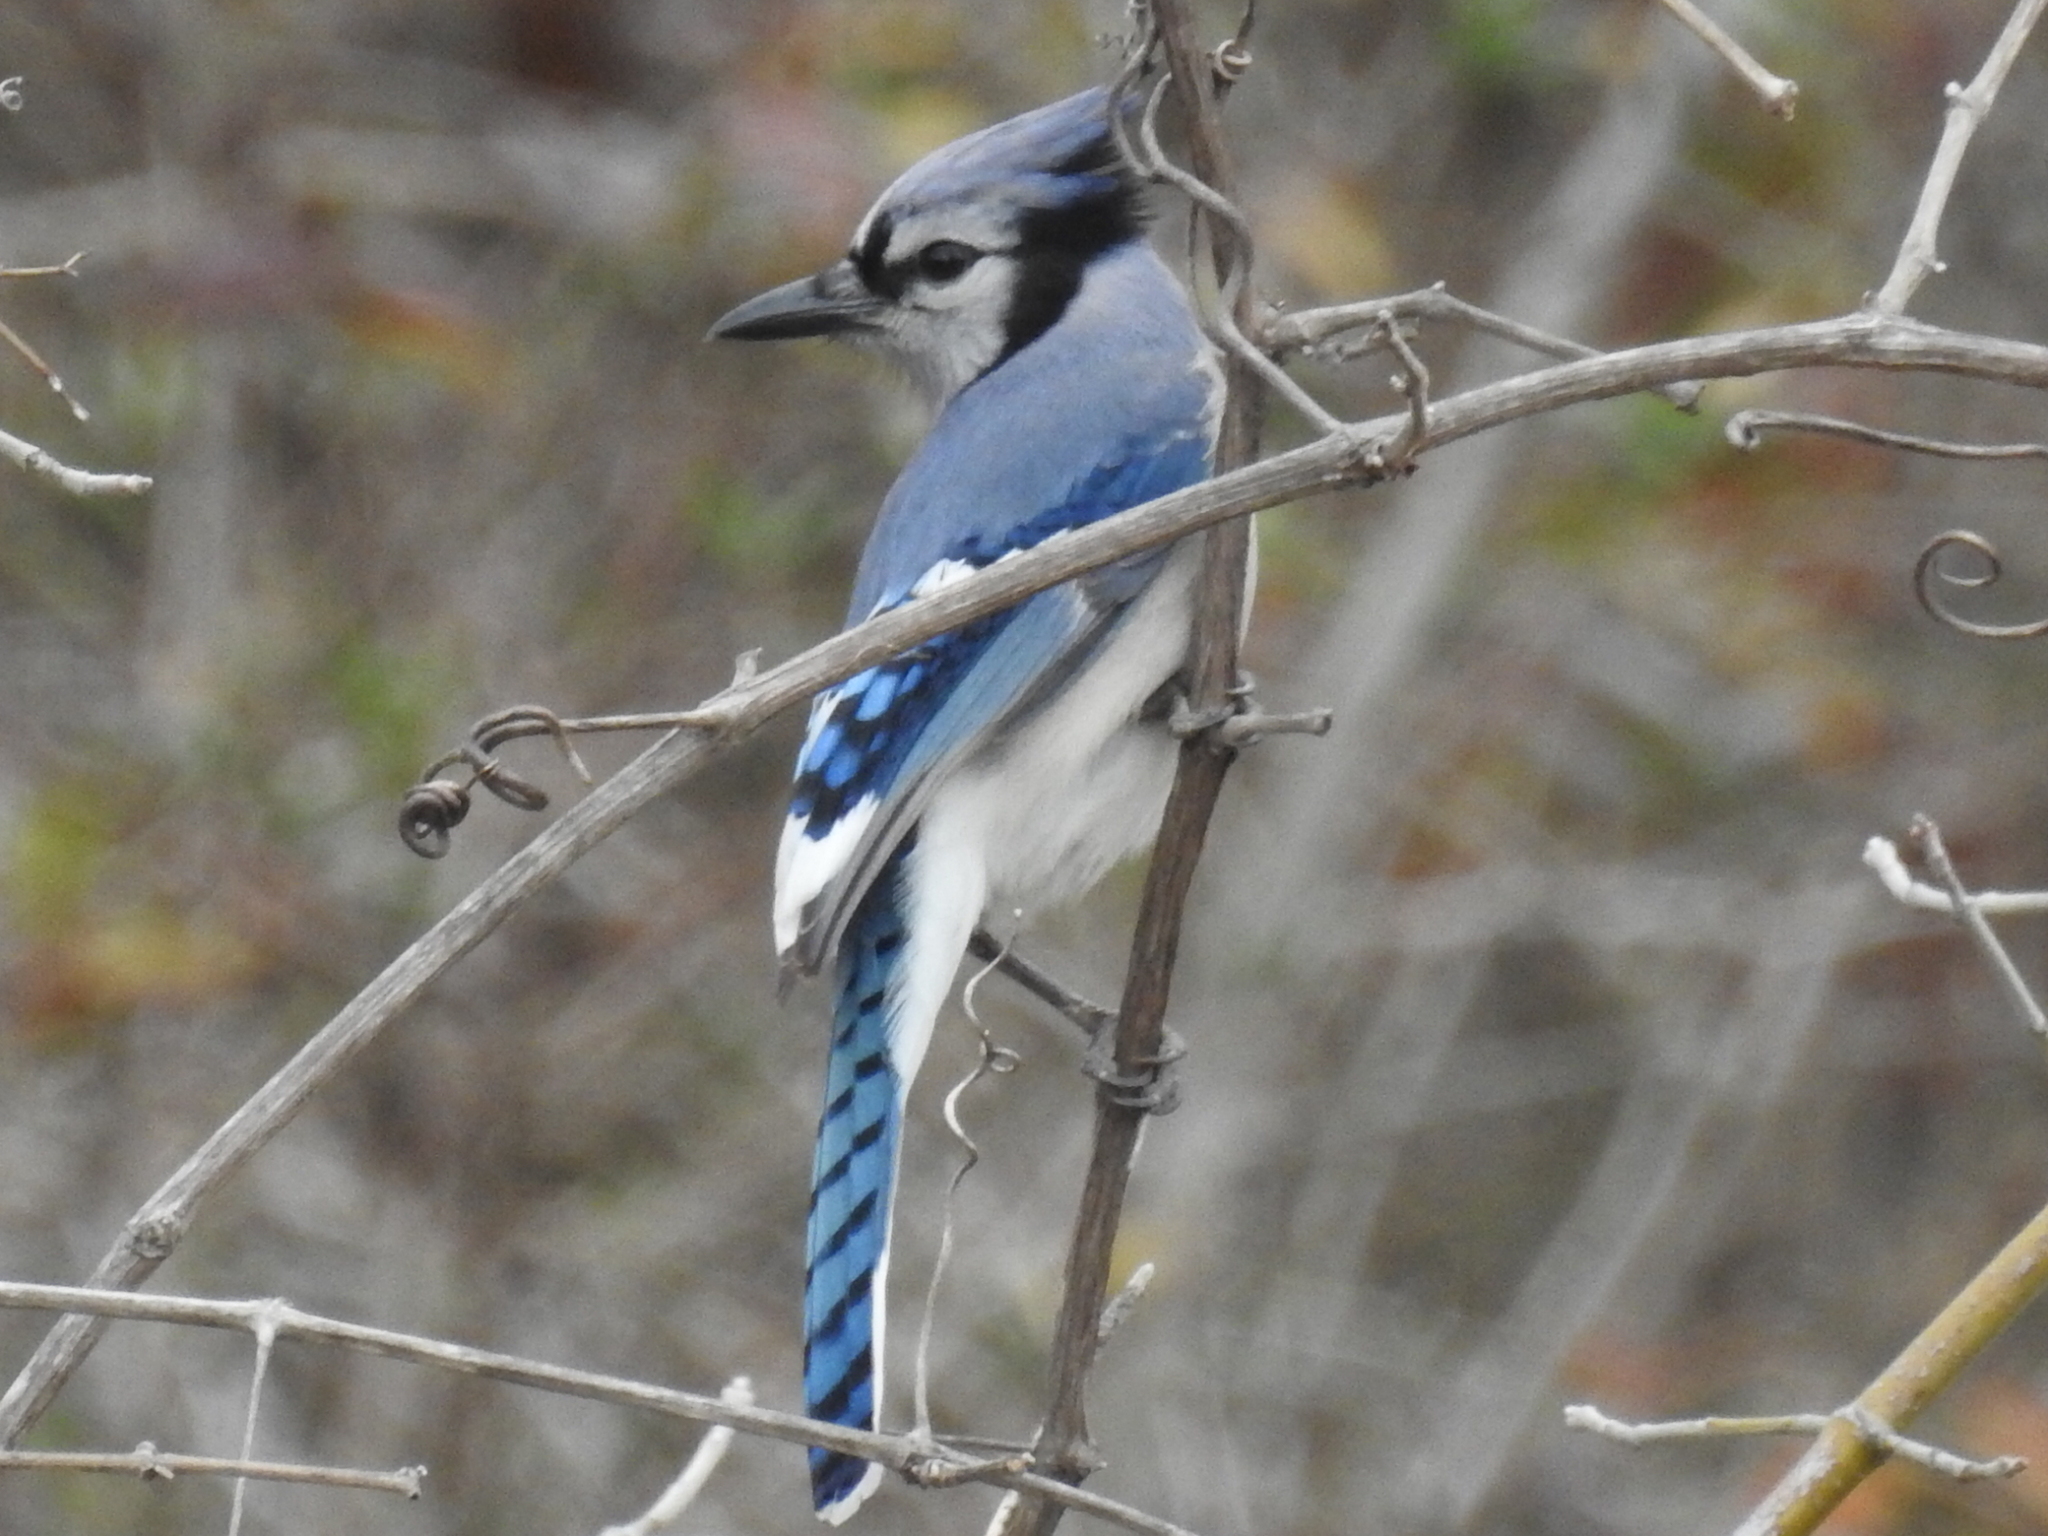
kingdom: Animalia
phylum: Chordata
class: Aves
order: Passeriformes
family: Corvidae
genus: Cyanocitta
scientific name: Cyanocitta cristata
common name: Blue jay
